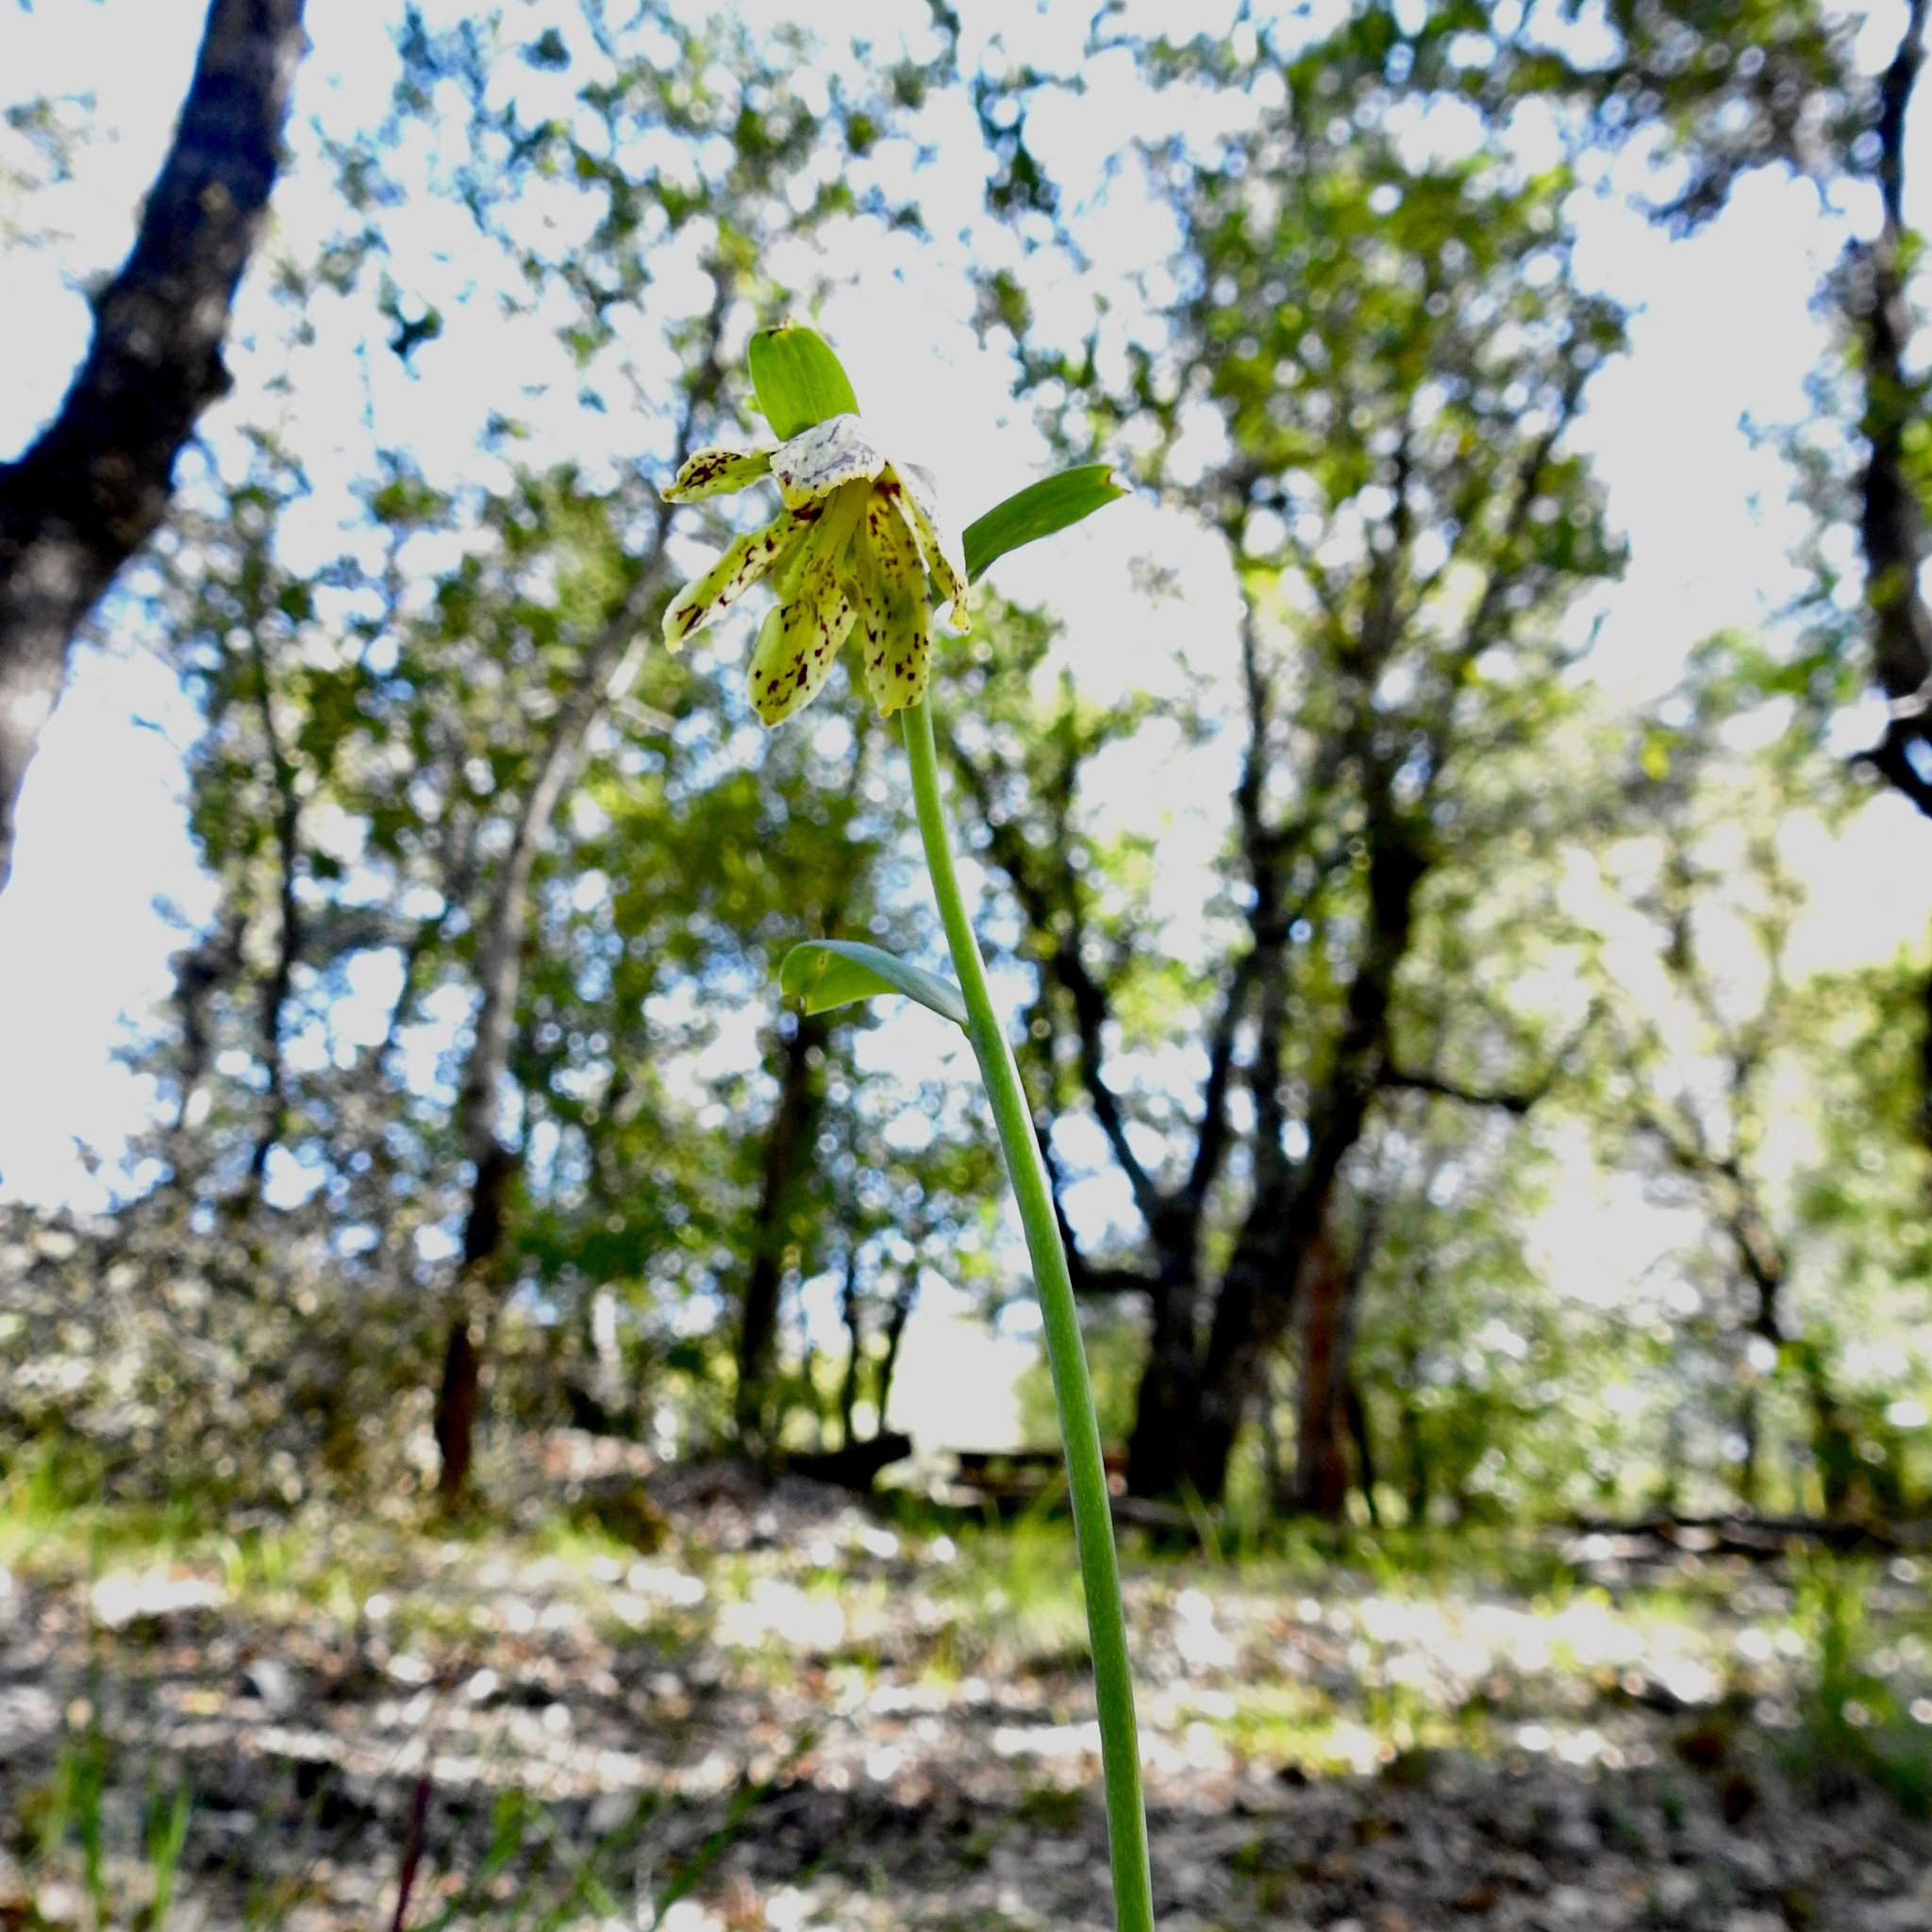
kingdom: Plantae
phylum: Tracheophyta
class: Liliopsida
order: Liliales
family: Liliaceae
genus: Fritillaria
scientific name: Fritillaria affinis
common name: Ojai fritillary
